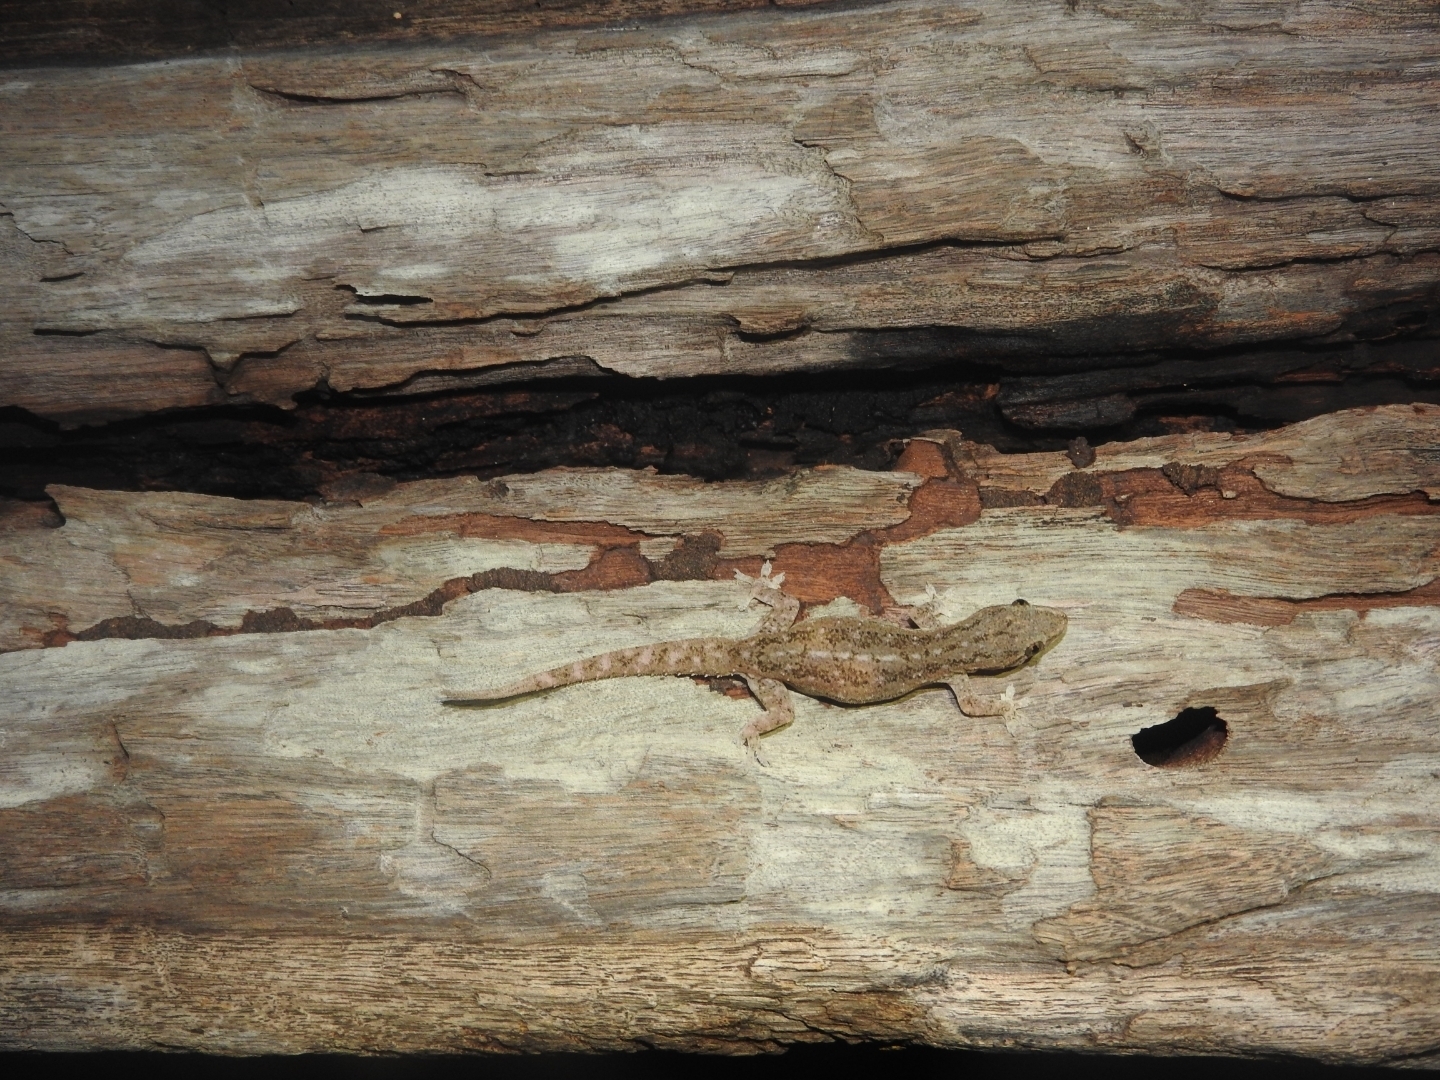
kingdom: Animalia
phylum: Chordata
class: Squamata
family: Gekkonidae
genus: Hemidactylus
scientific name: Hemidactylus frenatus
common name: Common house gecko
